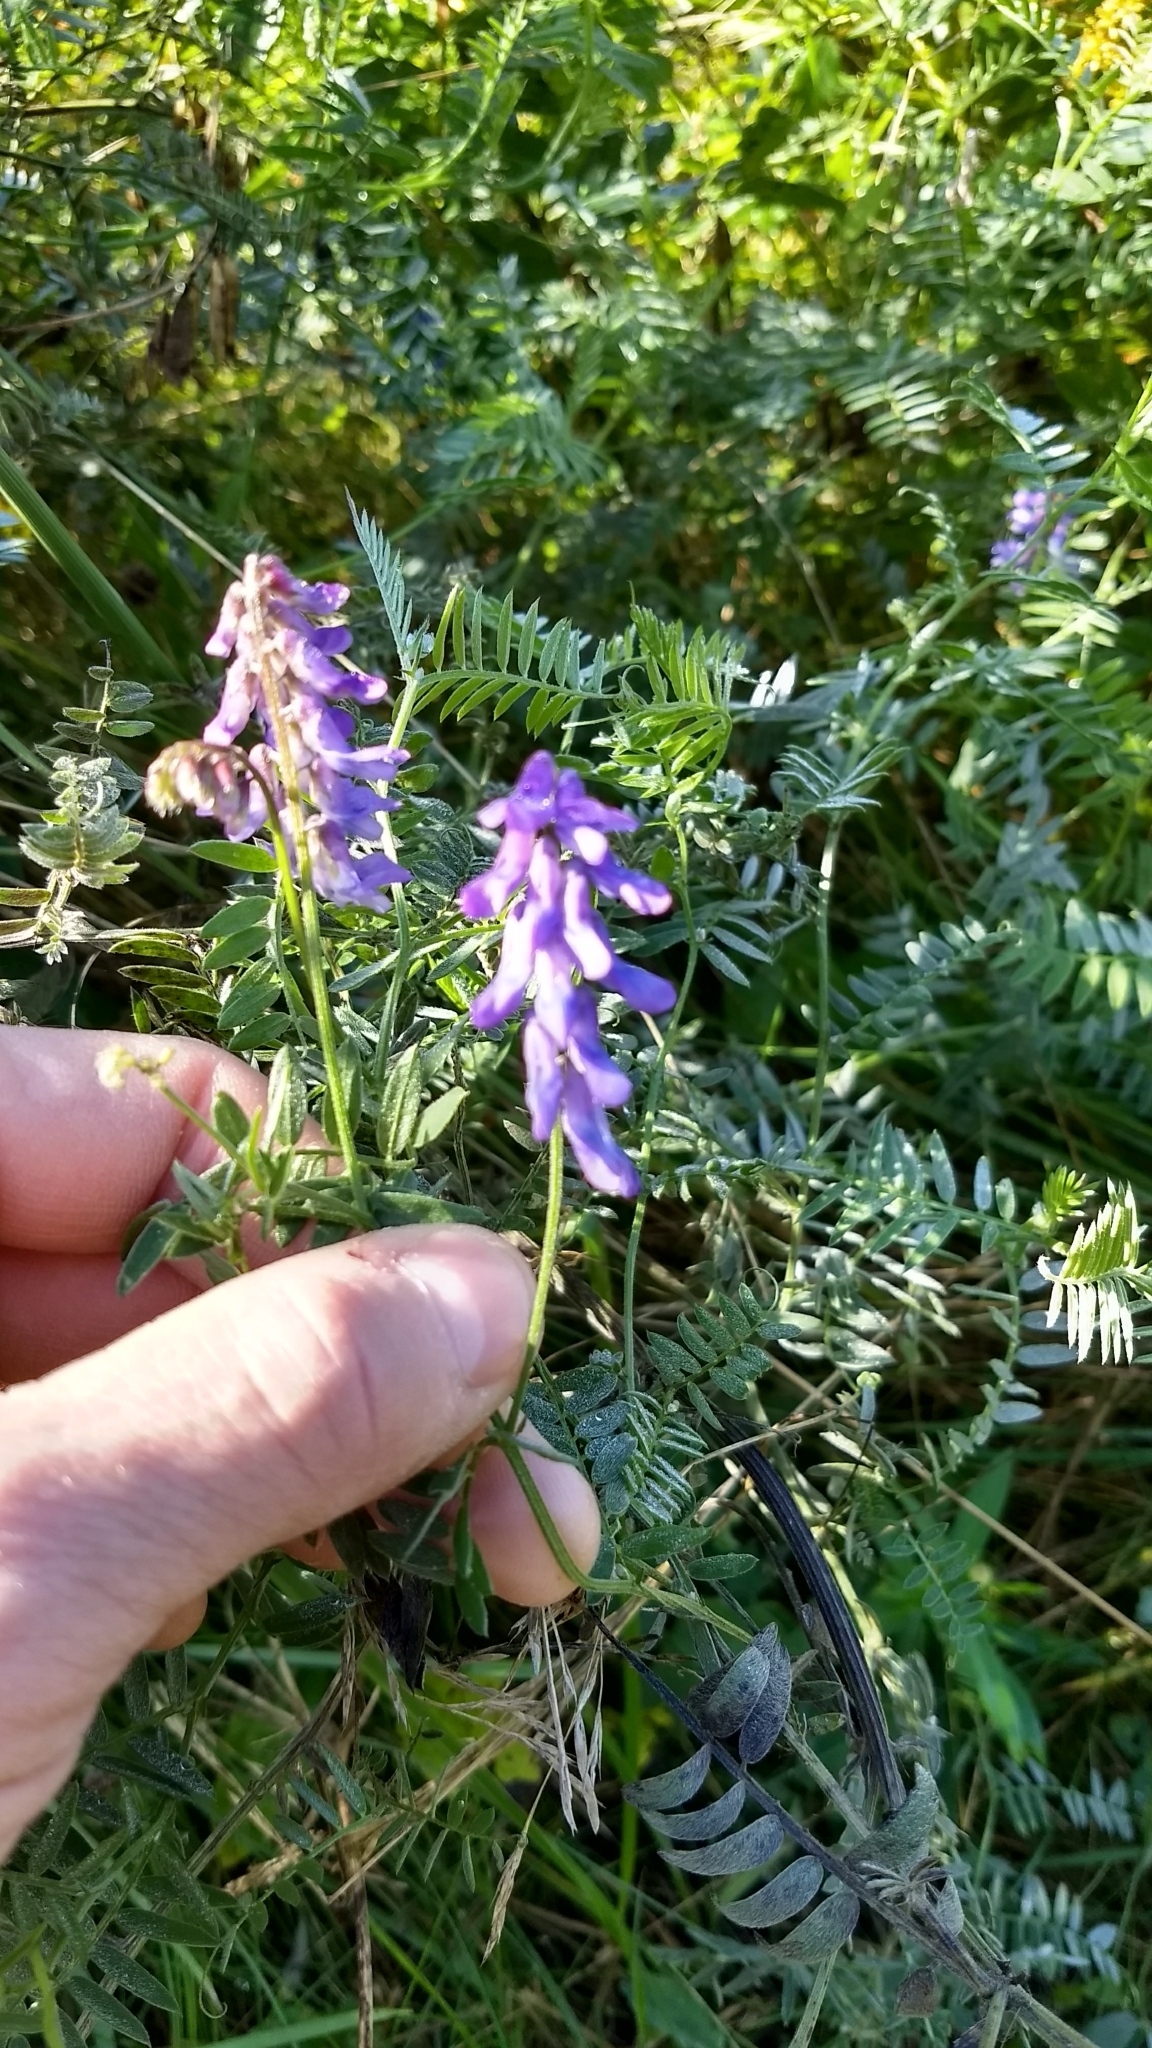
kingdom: Plantae
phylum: Tracheophyta
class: Magnoliopsida
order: Fabales
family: Fabaceae
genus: Vicia
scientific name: Vicia cracca
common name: Bird vetch
